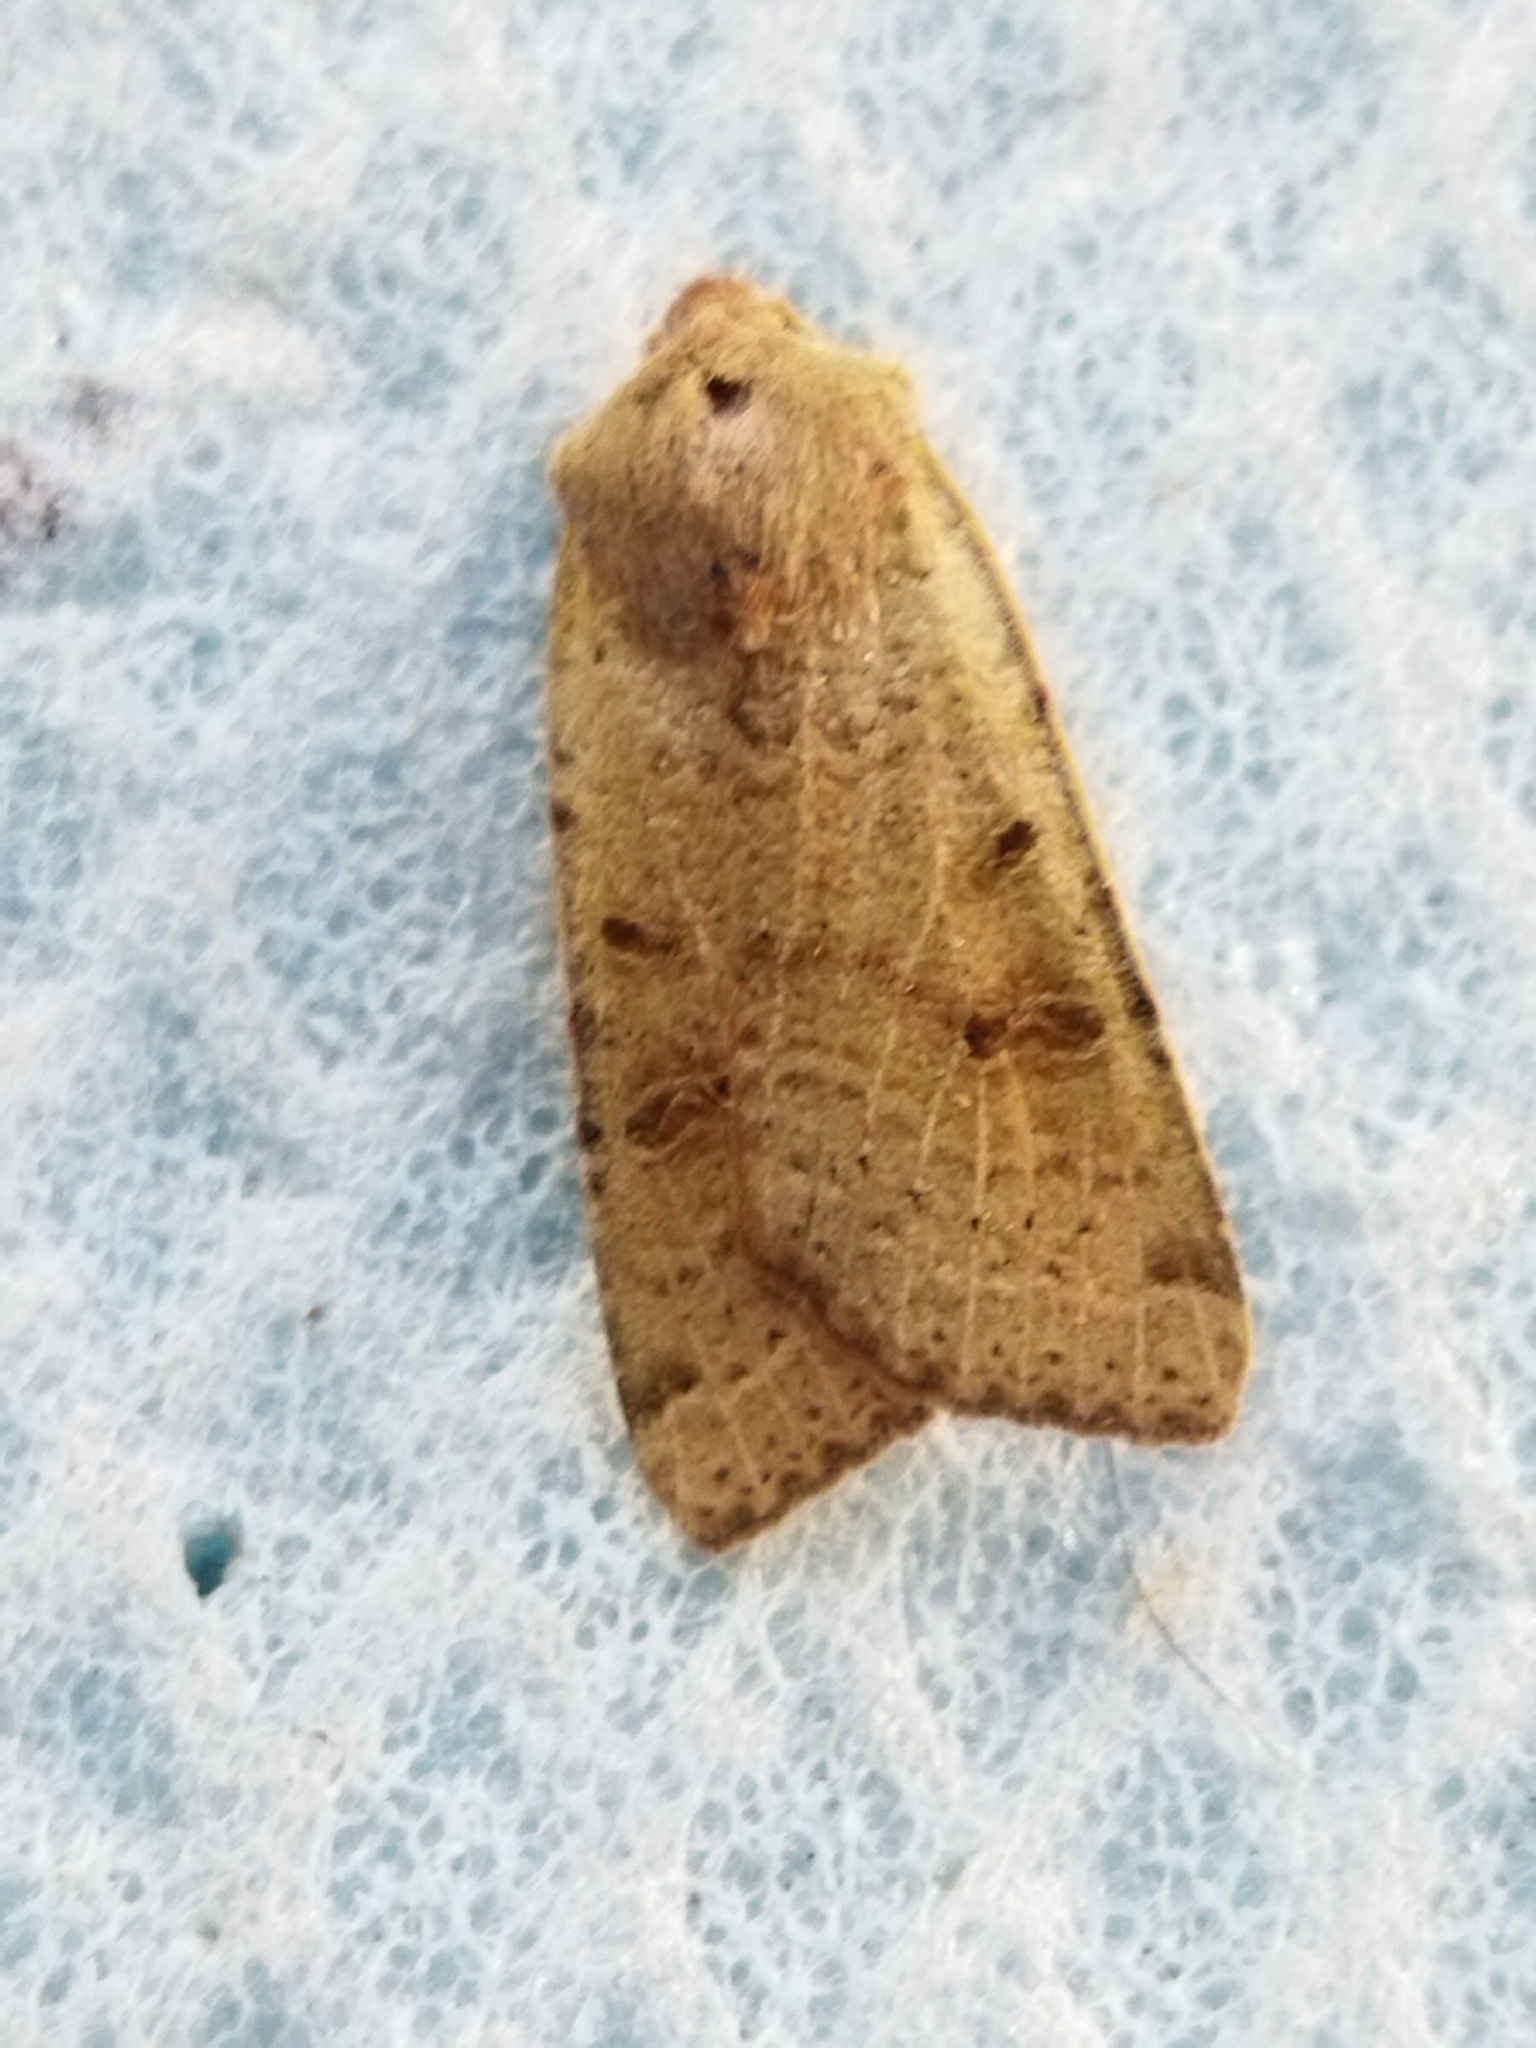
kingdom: Animalia
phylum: Arthropoda
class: Insecta
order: Lepidoptera
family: Noctuidae
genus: Agrochola
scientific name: Agrochola lychnidis
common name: Beaded chestnut
